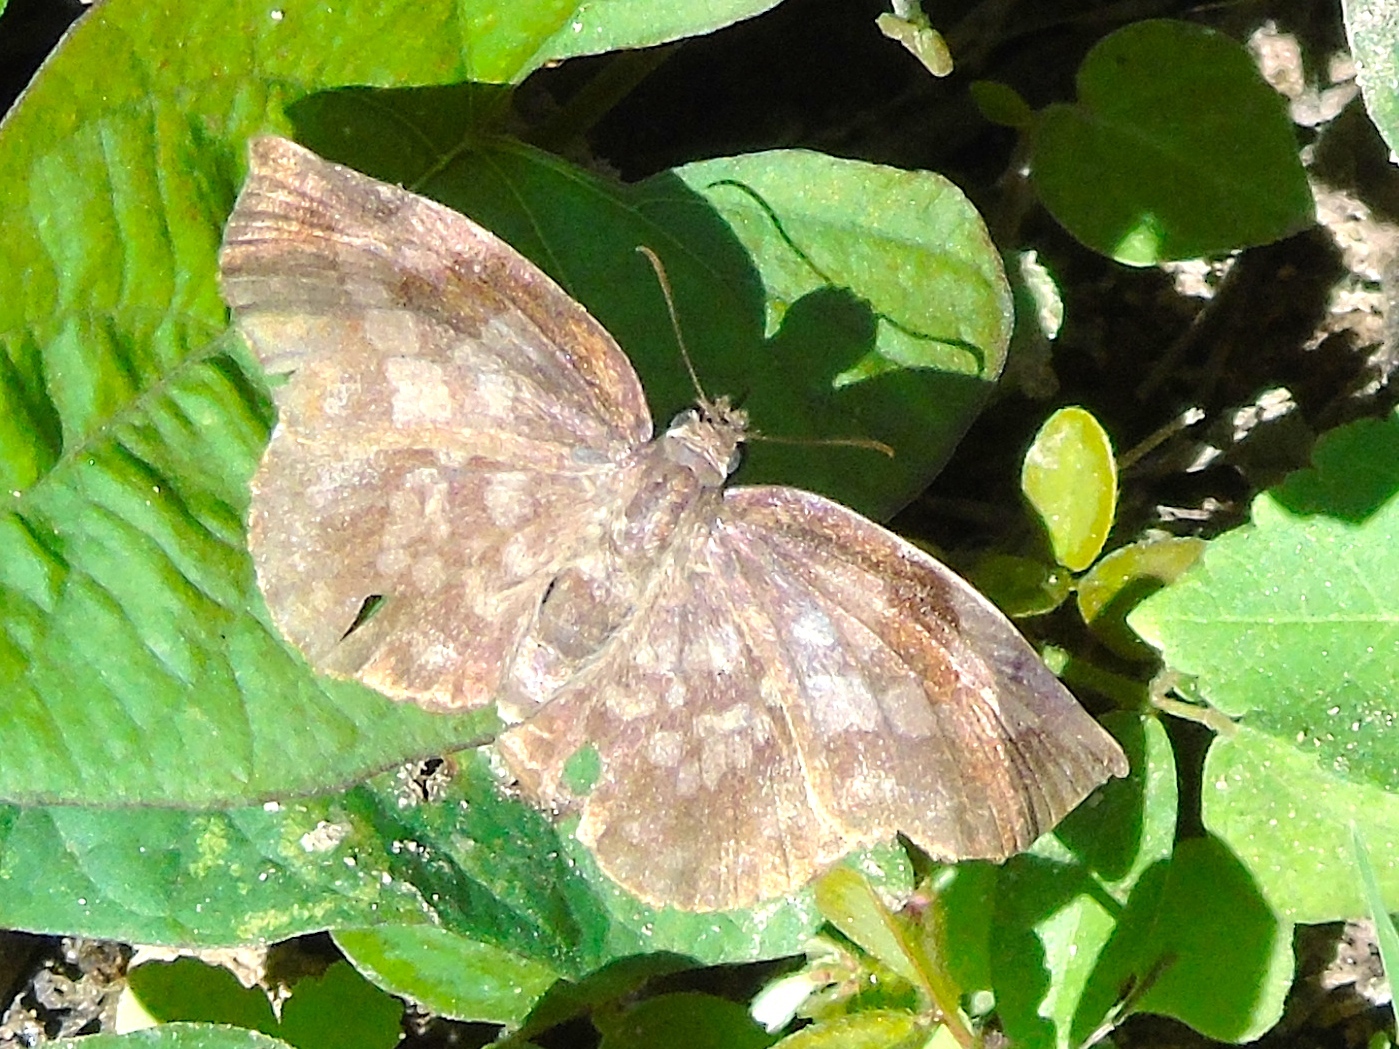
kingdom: Animalia
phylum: Arthropoda
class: Insecta
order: Lepidoptera
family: Hesperiidae
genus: Achlyodes
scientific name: Achlyodes thraso
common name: Sickle-winged skipper
